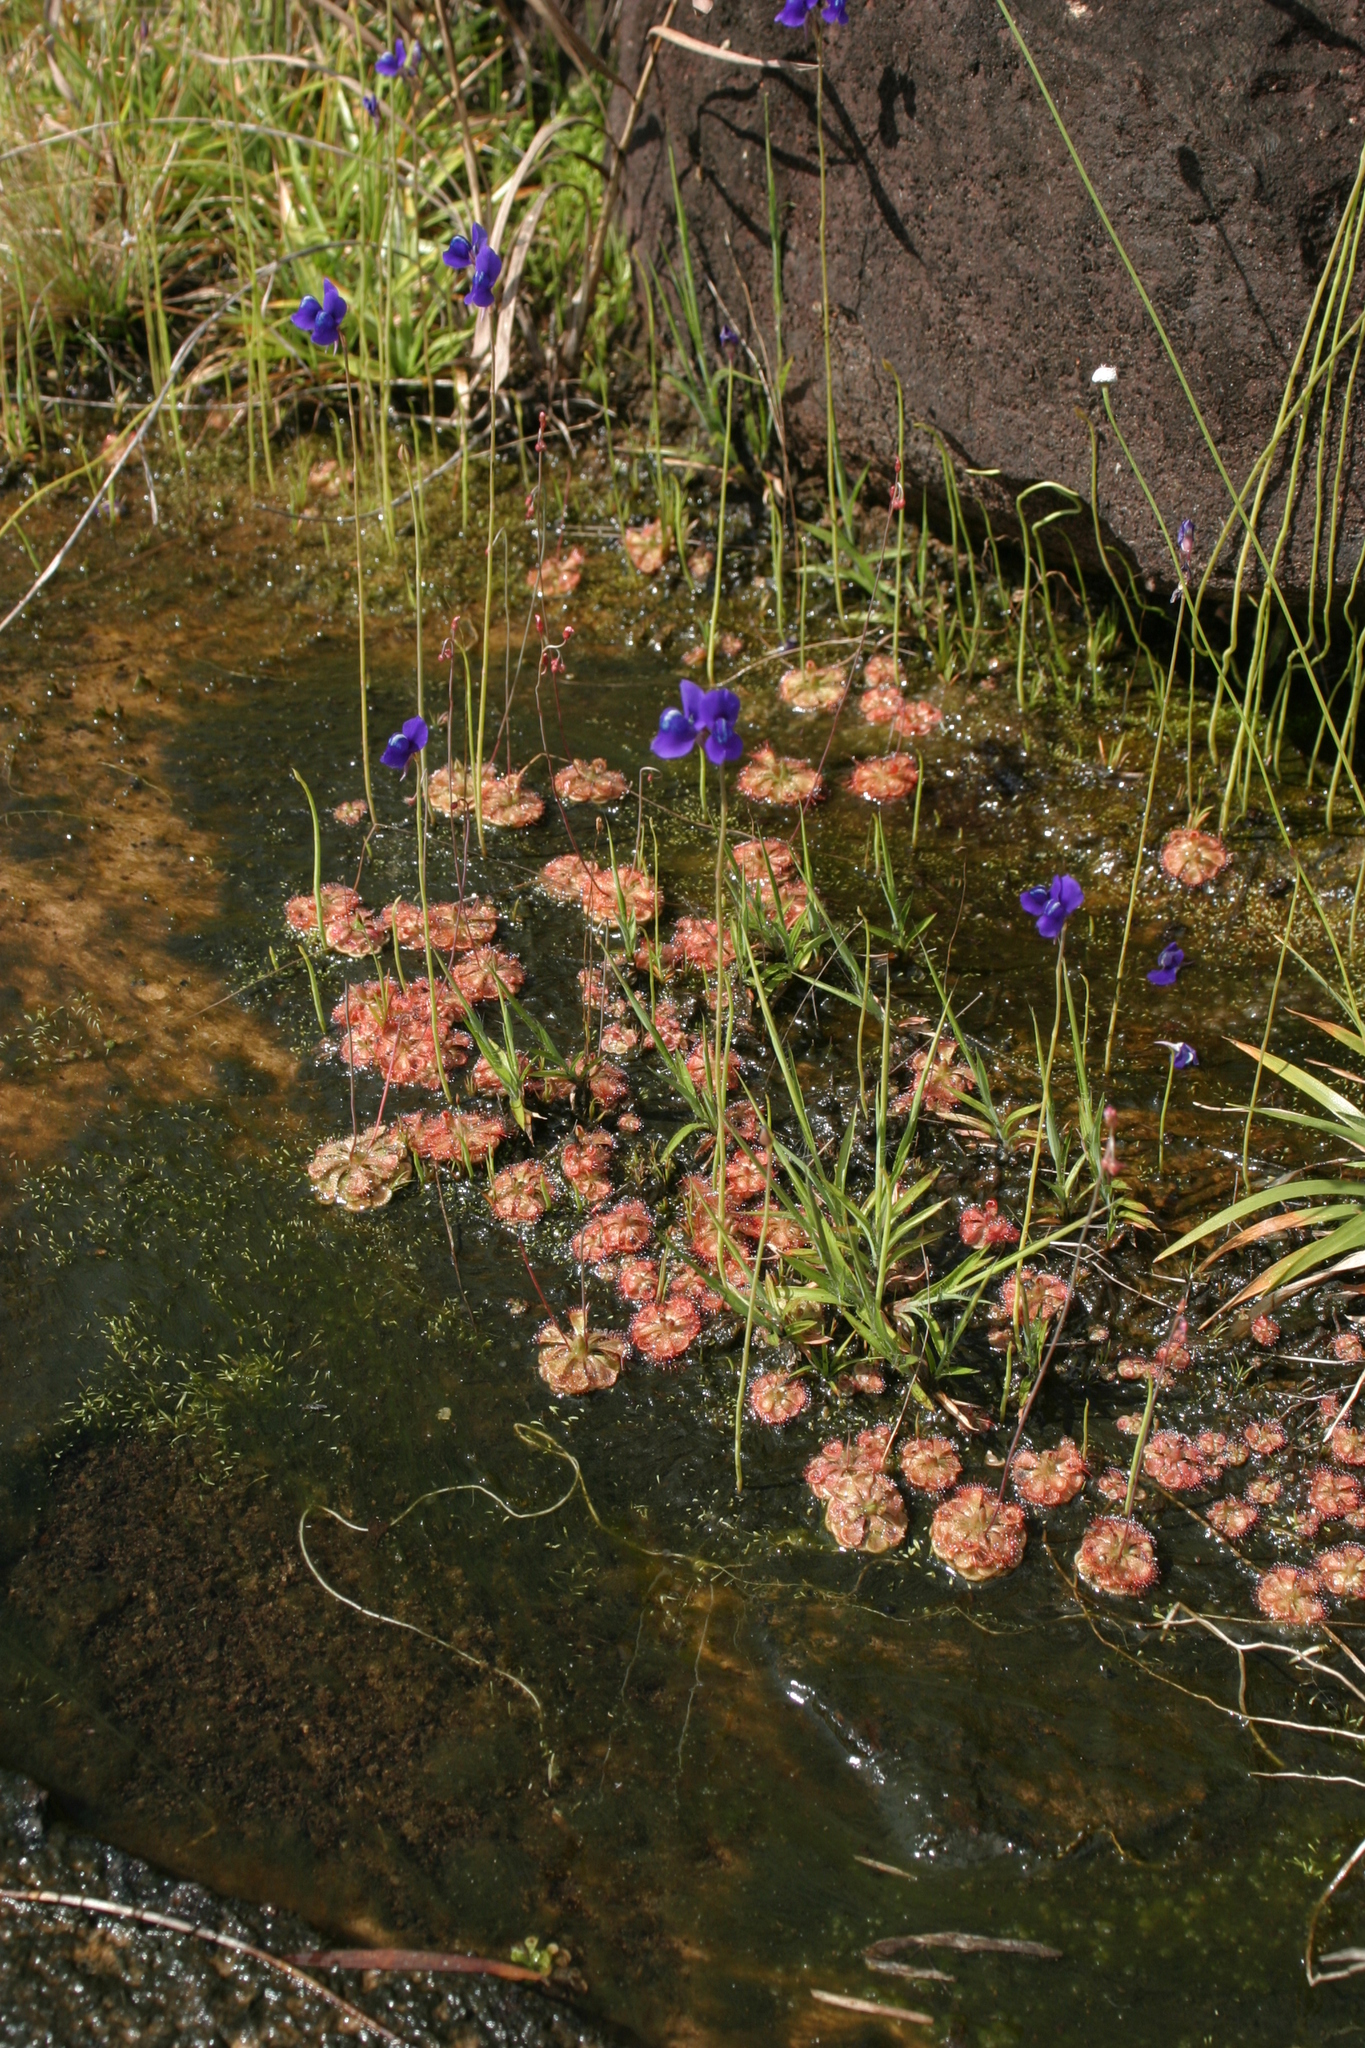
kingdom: Plantae
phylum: Tracheophyta
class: Magnoliopsida
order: Caryophyllales
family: Droseraceae
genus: Drosera
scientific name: Drosera spatulata
